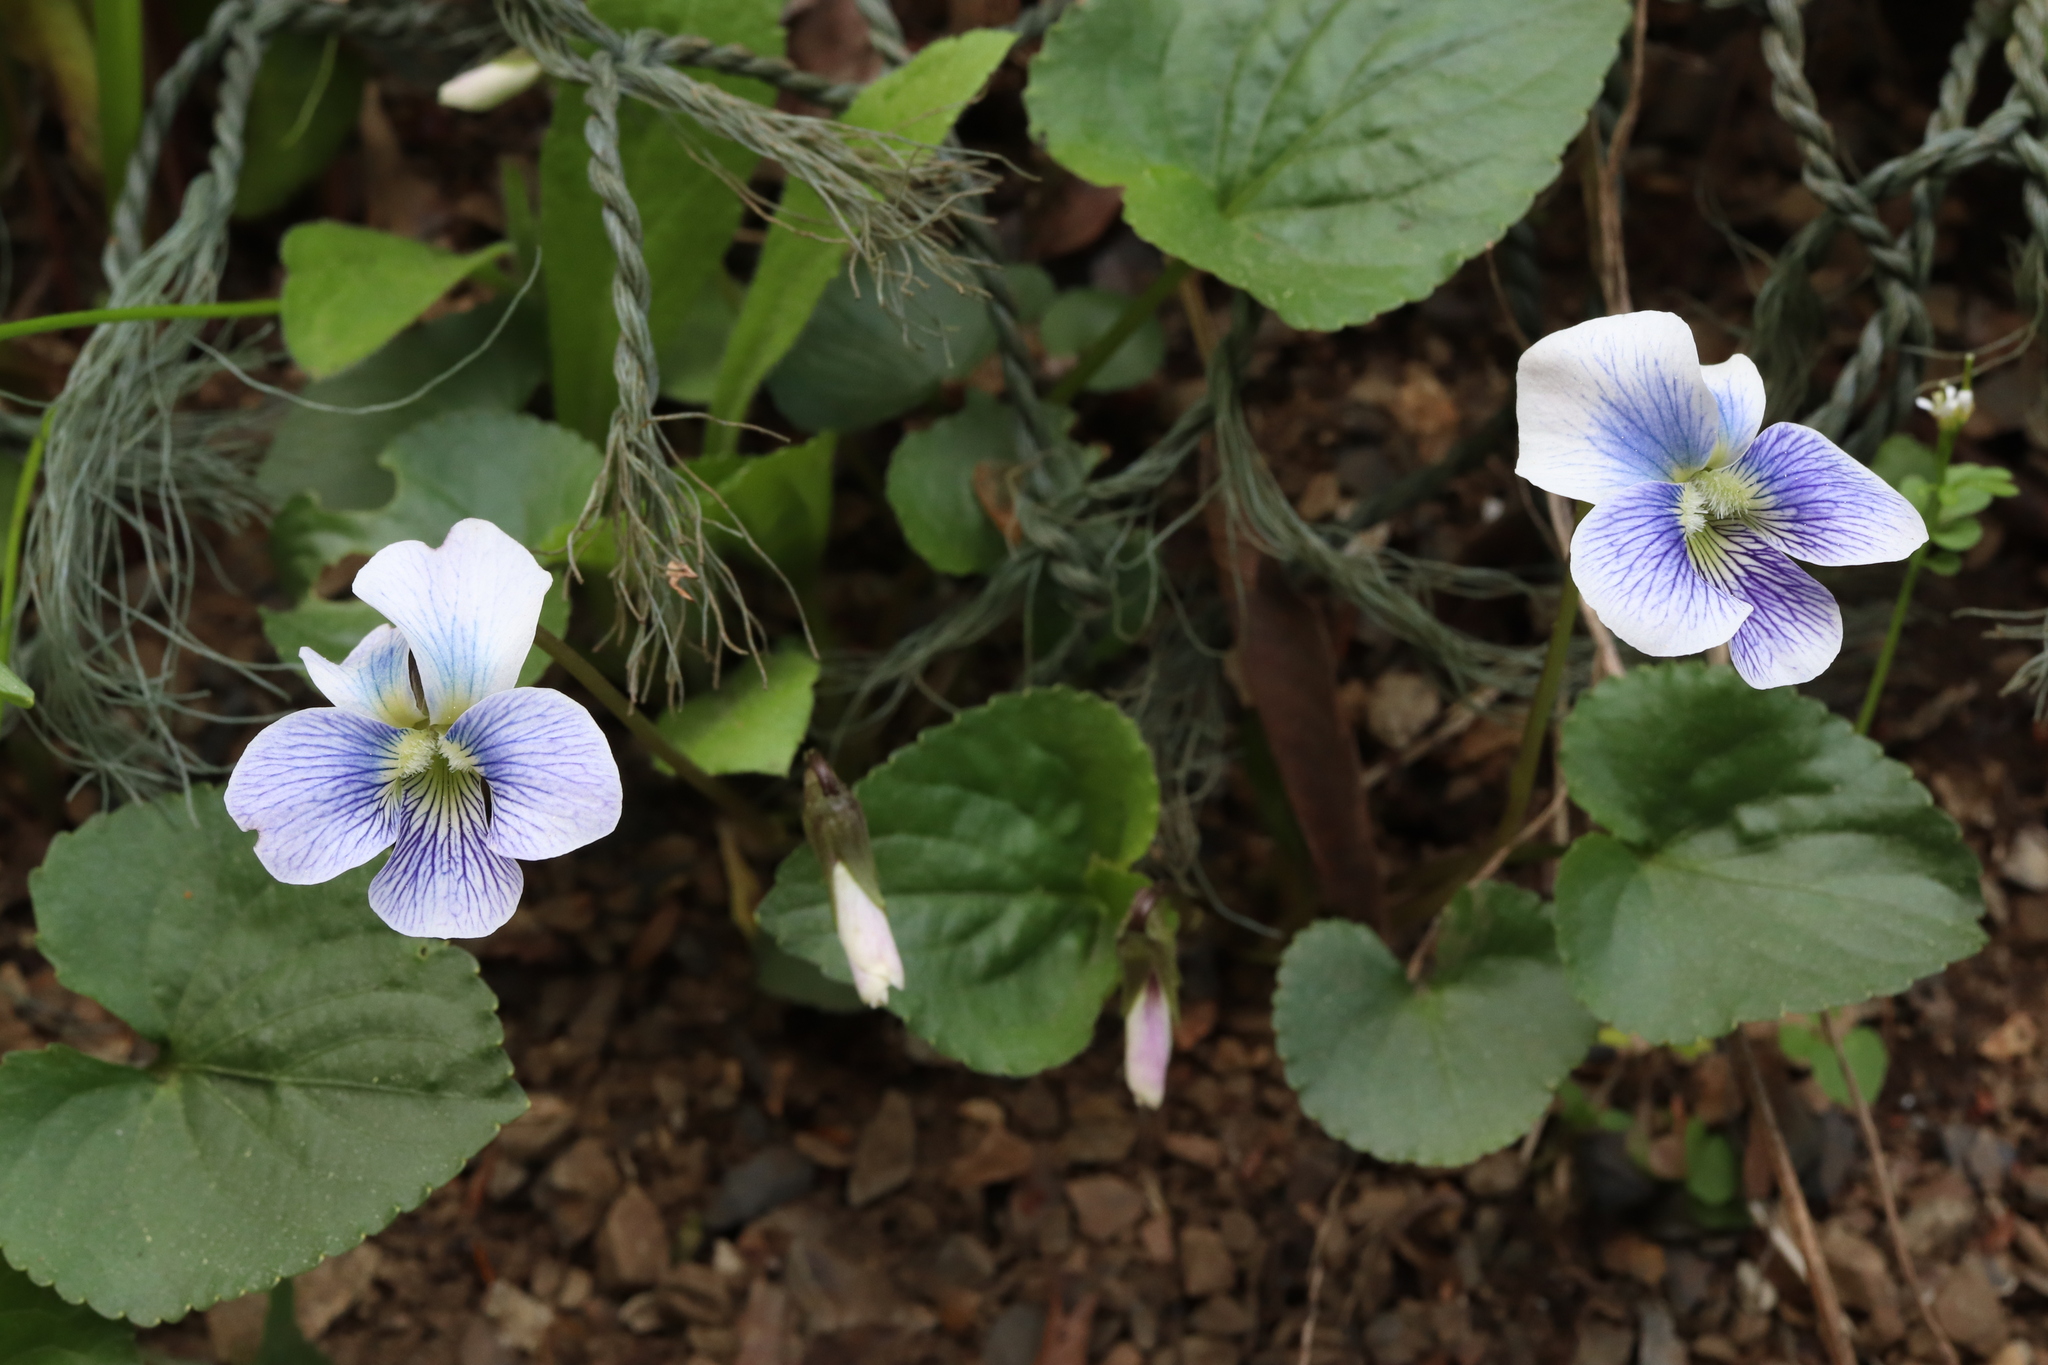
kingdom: Plantae
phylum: Tracheophyta
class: Magnoliopsida
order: Malpighiales
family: Violaceae
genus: Viola
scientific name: Viola sororia
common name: Dooryard violet
